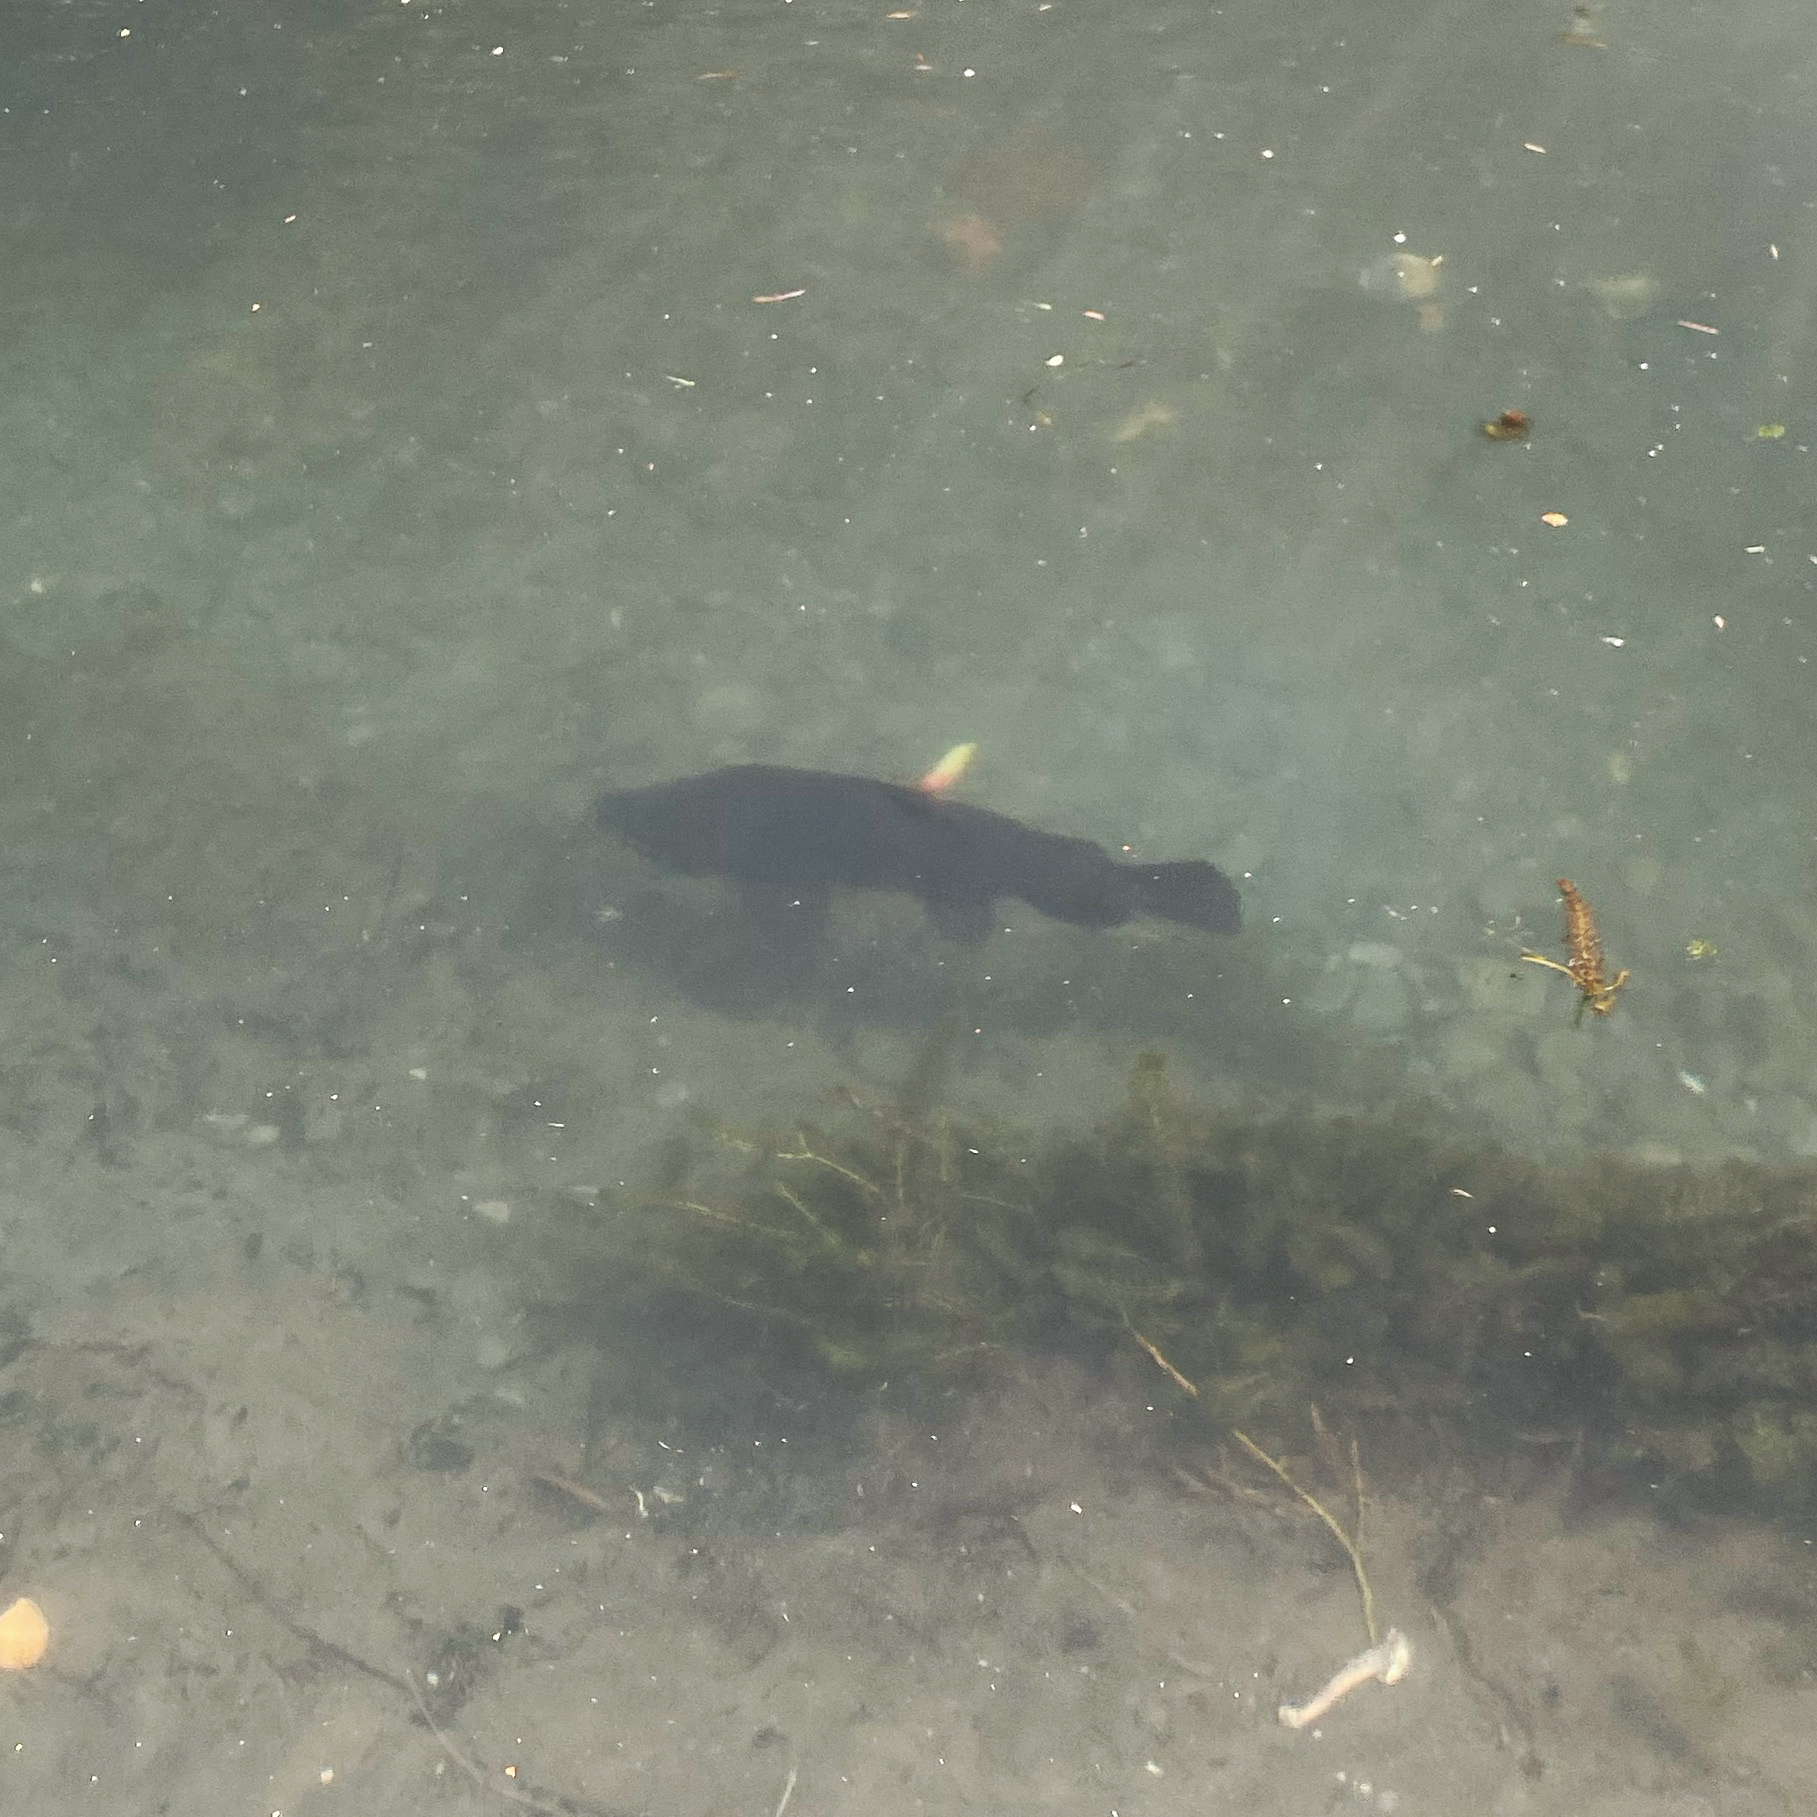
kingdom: Animalia
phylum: Chordata
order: Salmoniformes
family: Salmonidae
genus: Salmo
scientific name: Salmo trutta
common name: Brown trout
